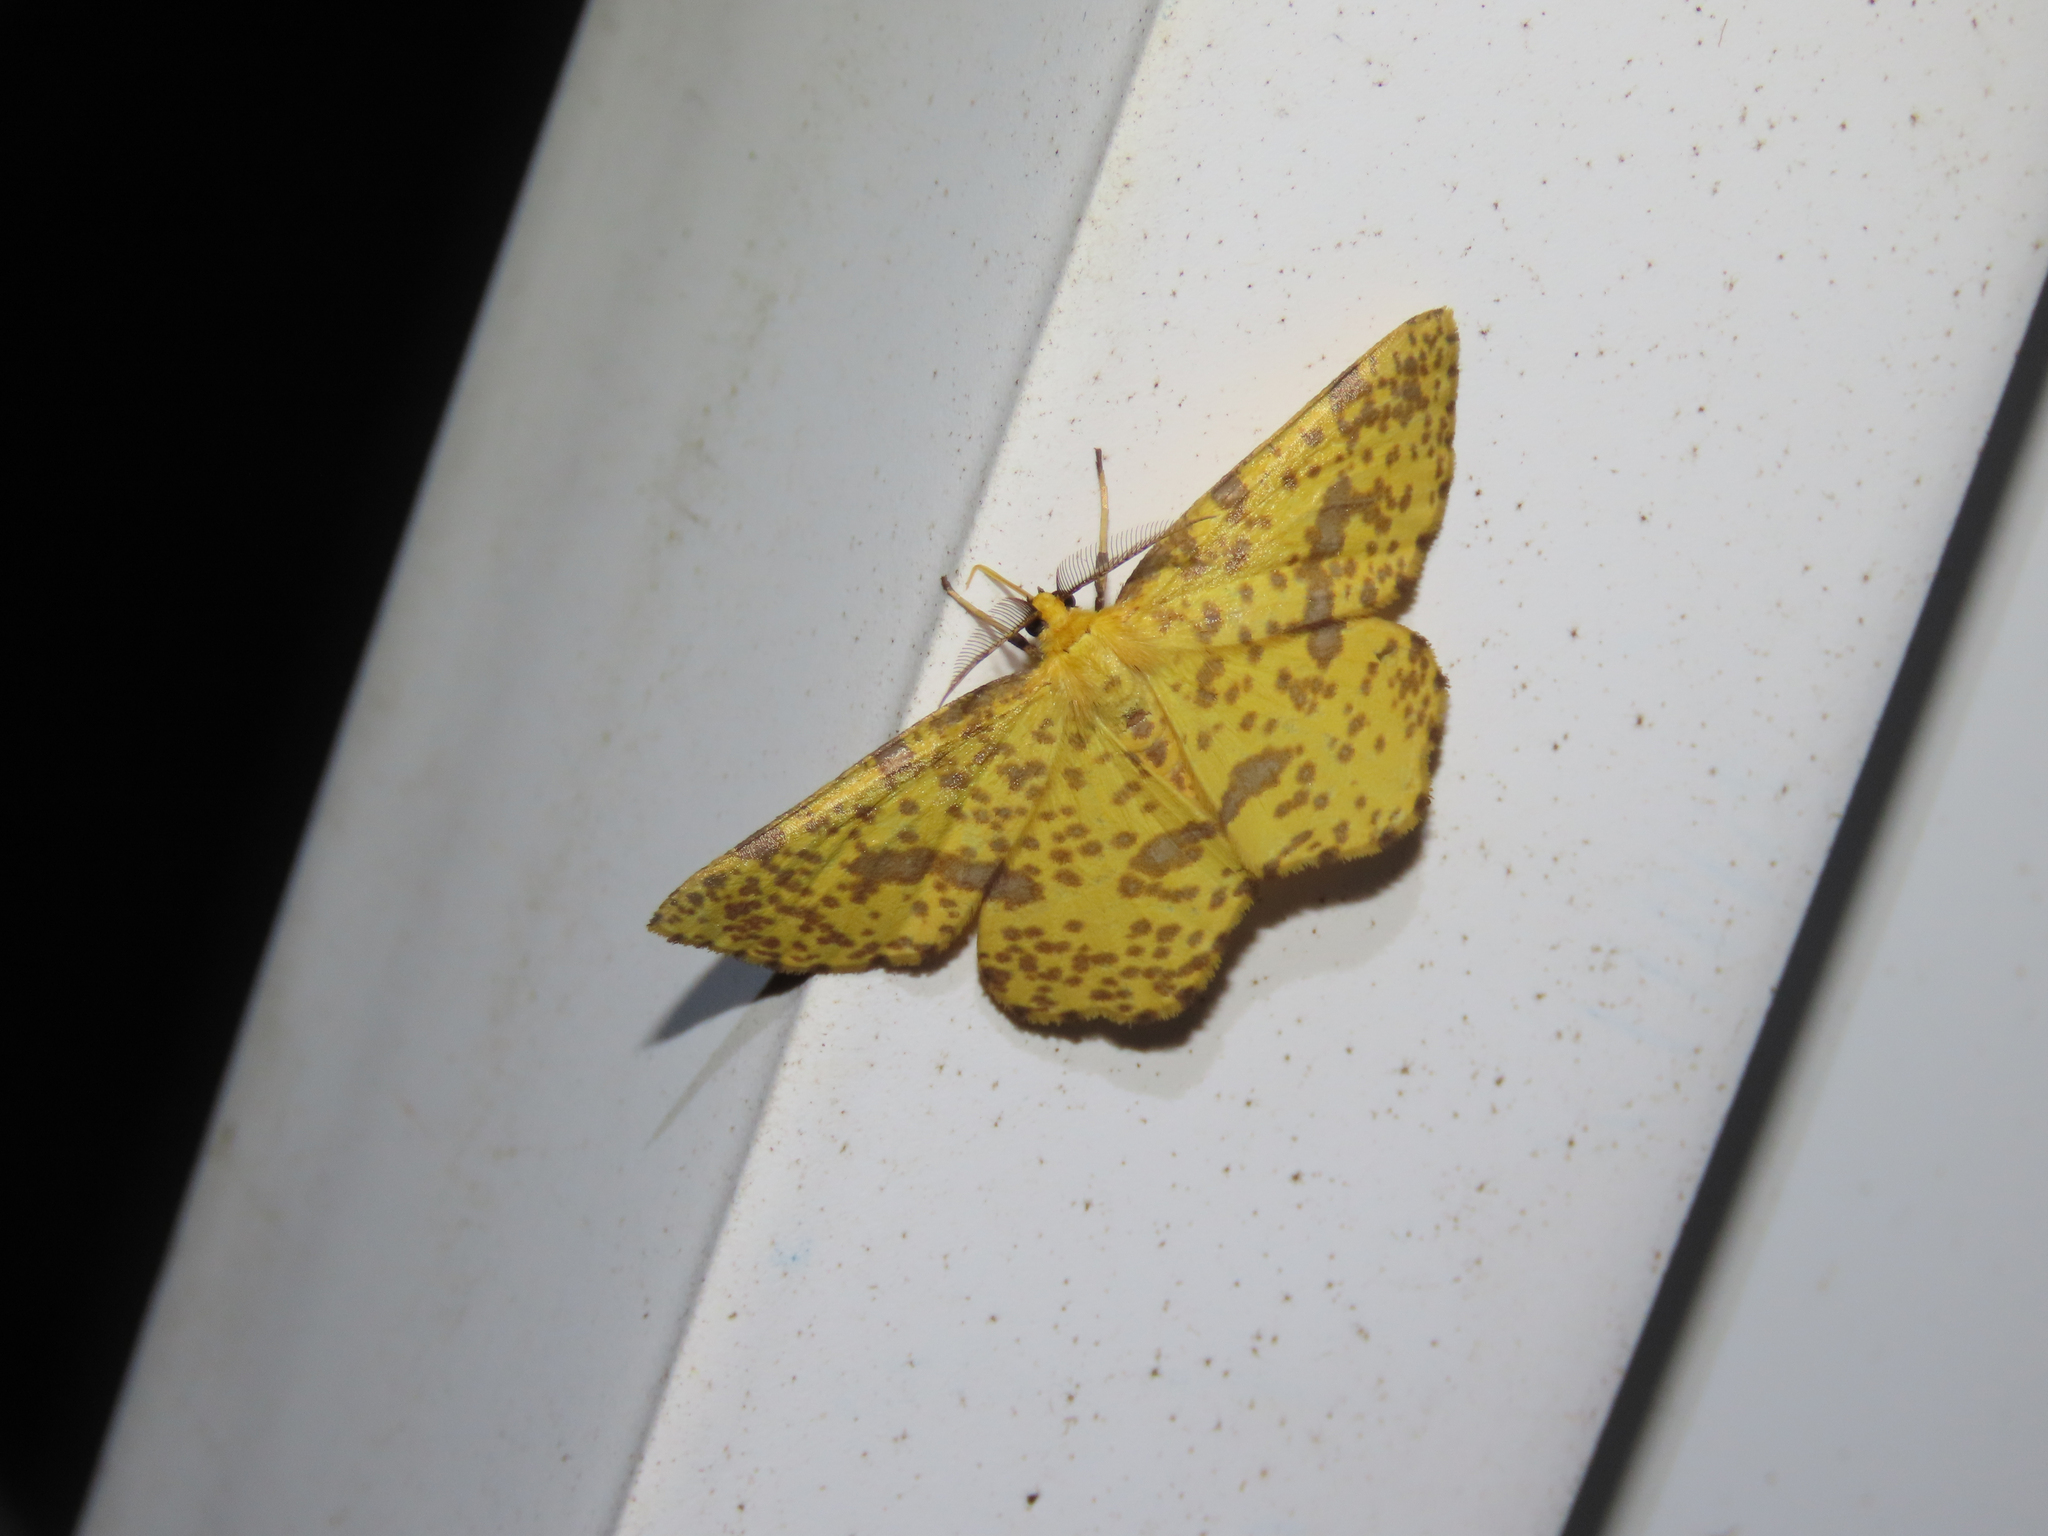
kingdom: Animalia
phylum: Arthropoda
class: Insecta
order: Lepidoptera
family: Geometridae
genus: Xanthotype
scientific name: Xanthotype
